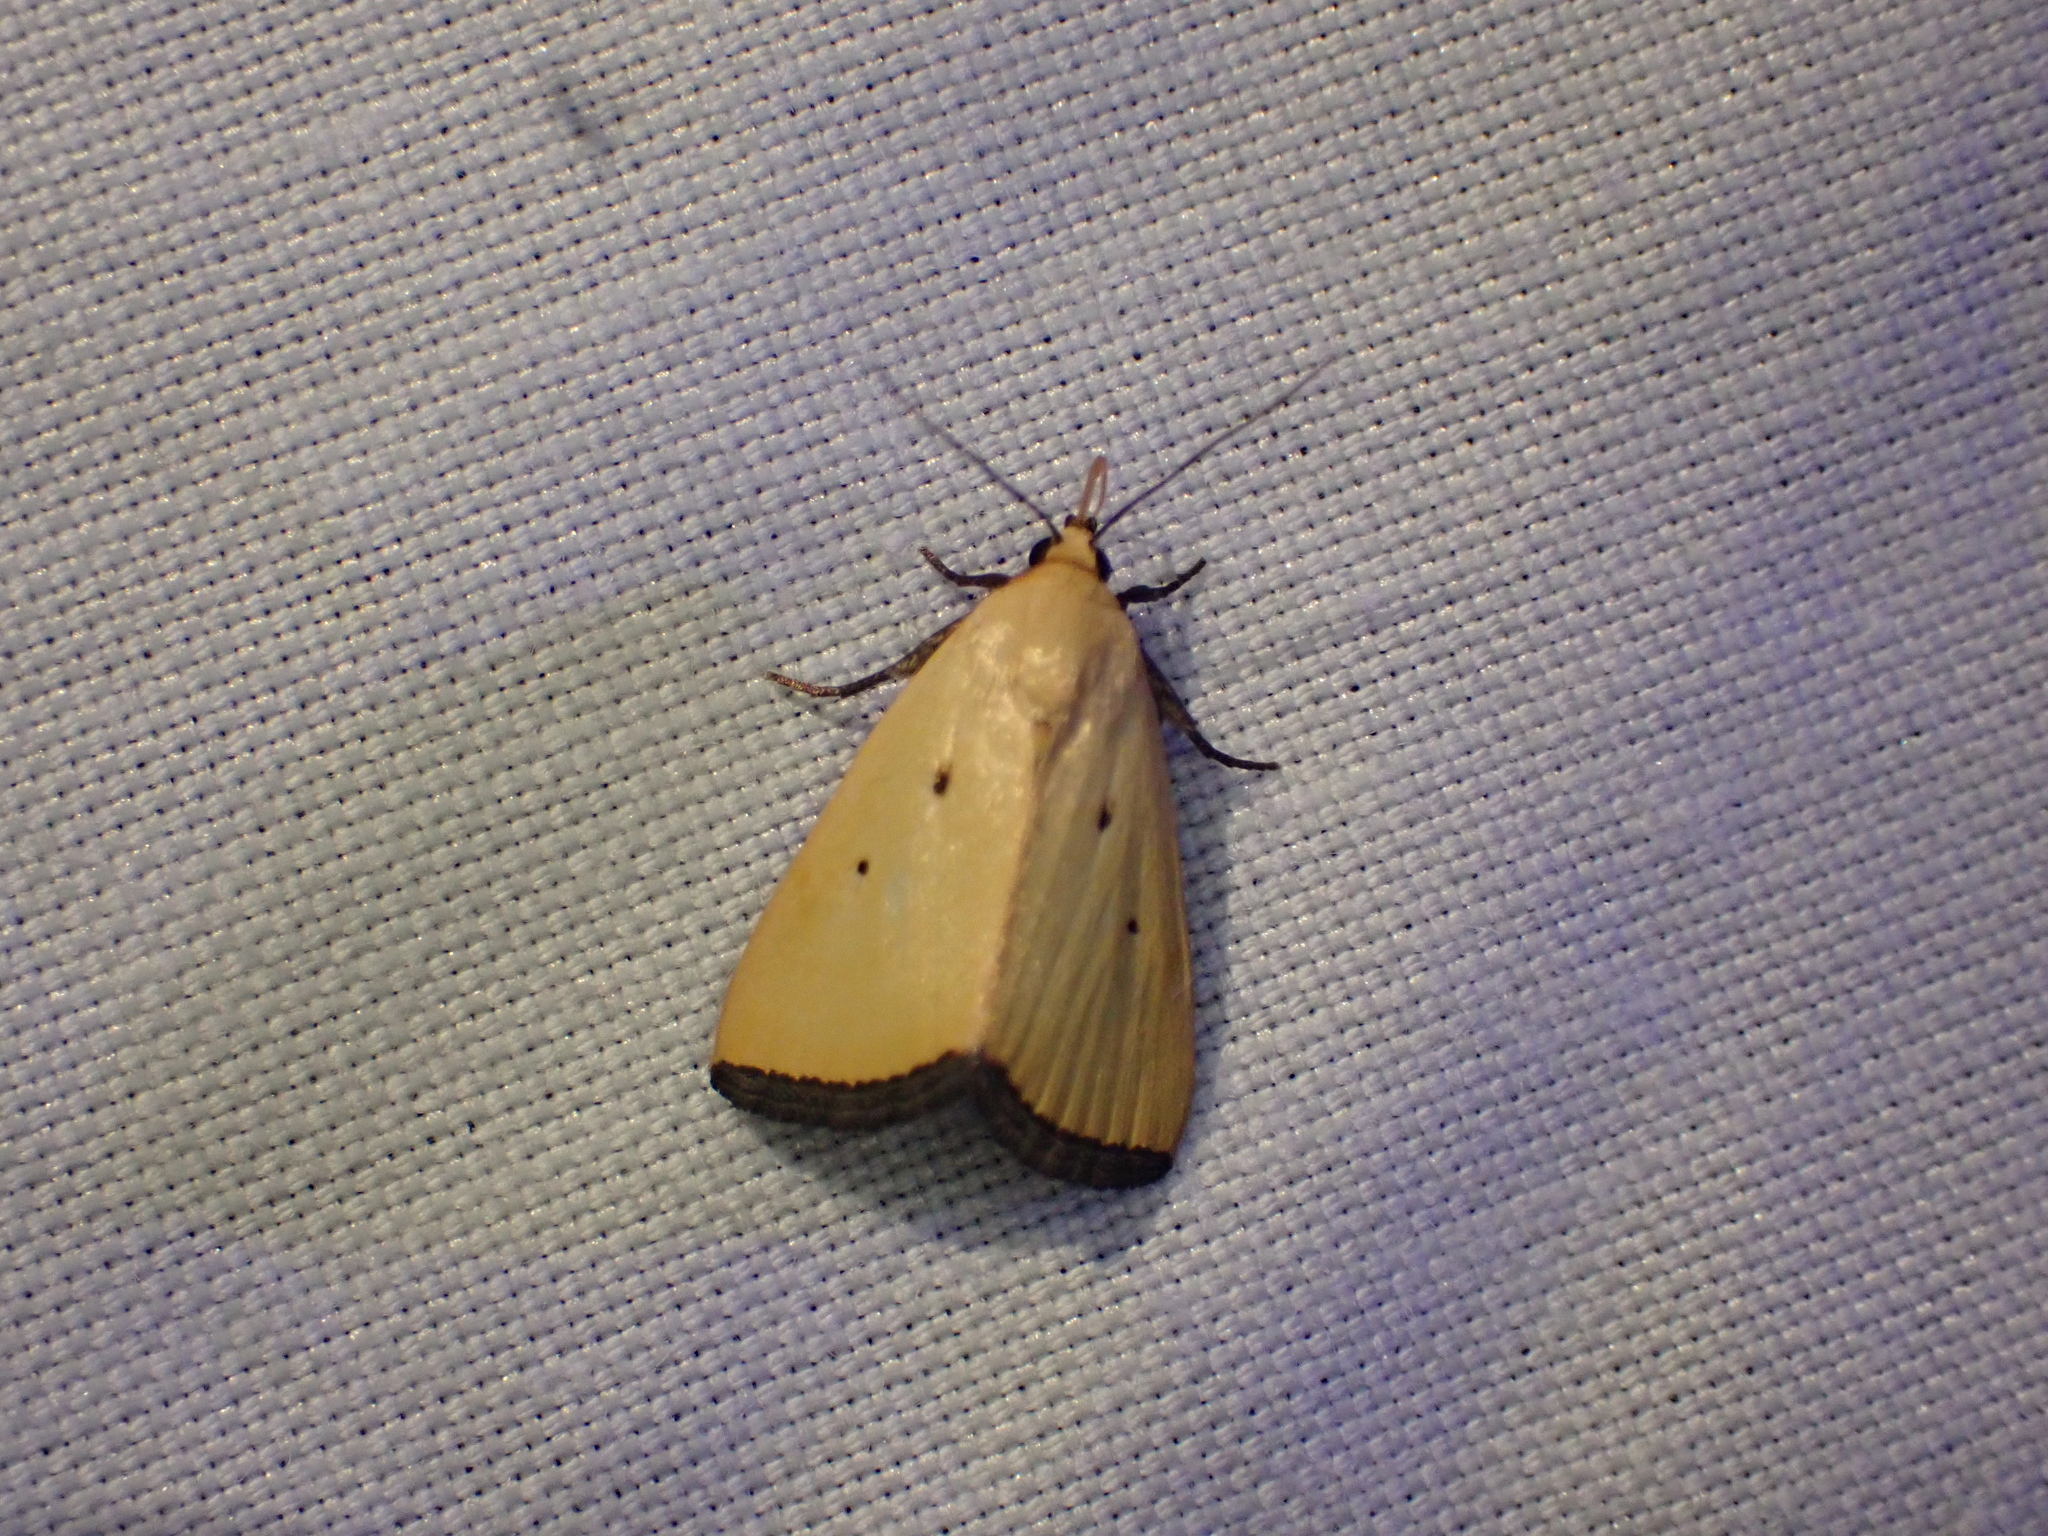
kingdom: Animalia
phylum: Arthropoda
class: Insecta
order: Lepidoptera
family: Noctuidae
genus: Marimatha
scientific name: Marimatha nigrofimbria
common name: Black-bordered lemon moth
